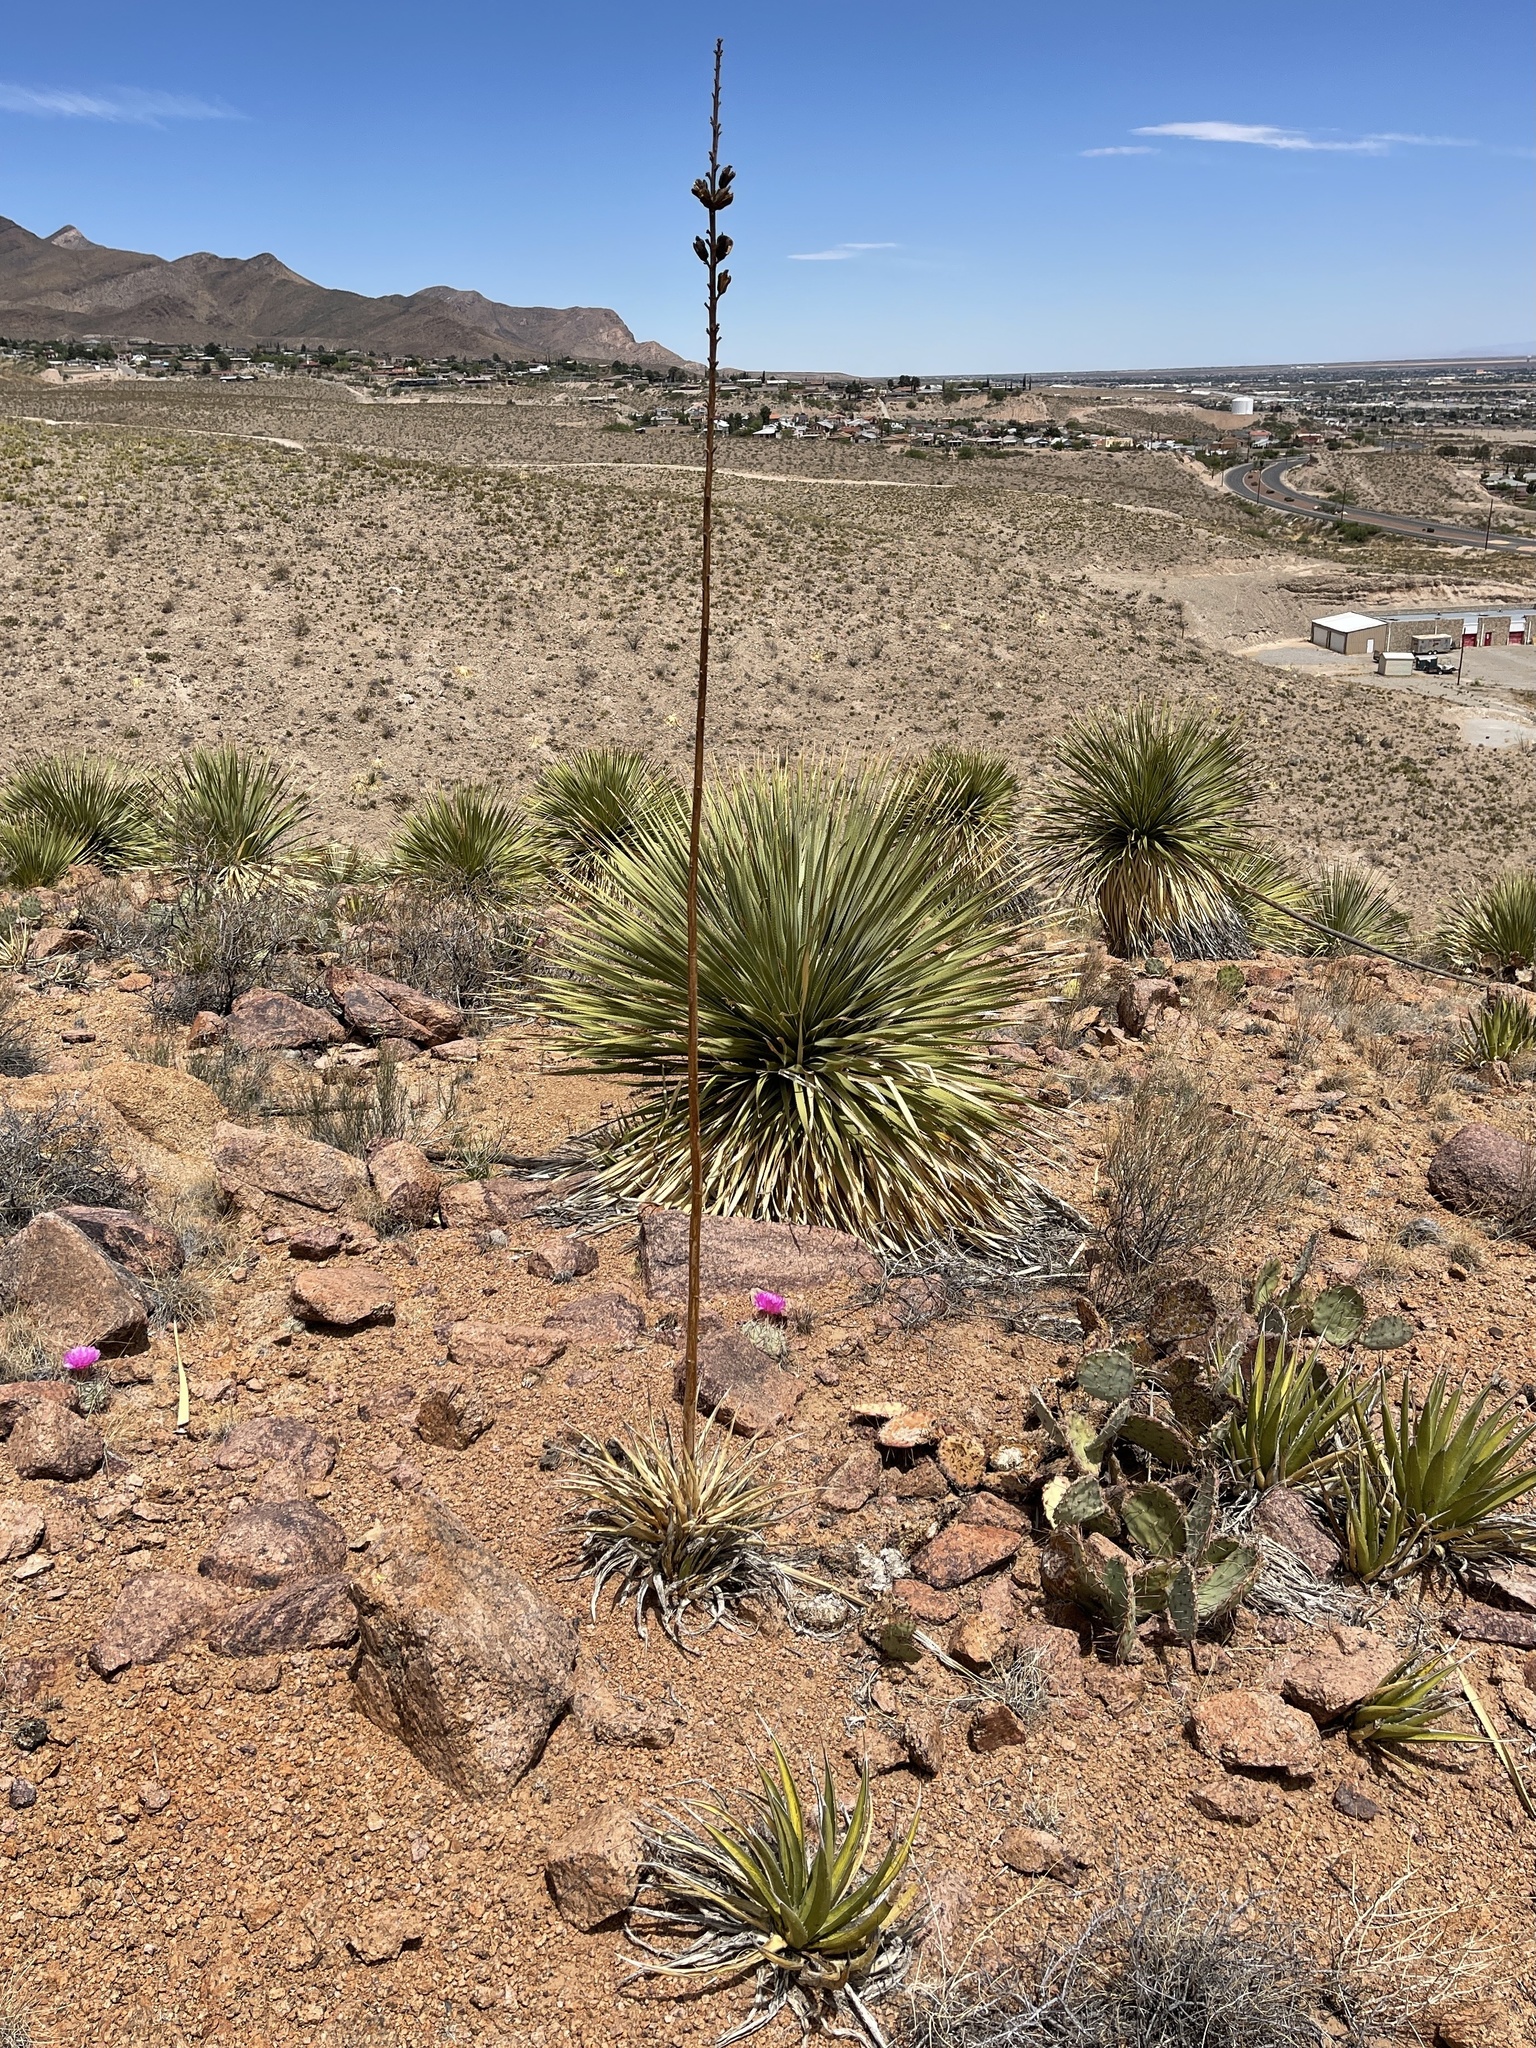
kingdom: Plantae
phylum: Tracheophyta
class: Liliopsida
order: Asparagales
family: Asparagaceae
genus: Agave
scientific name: Agave lechuguilla
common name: Lecheguilla agave
